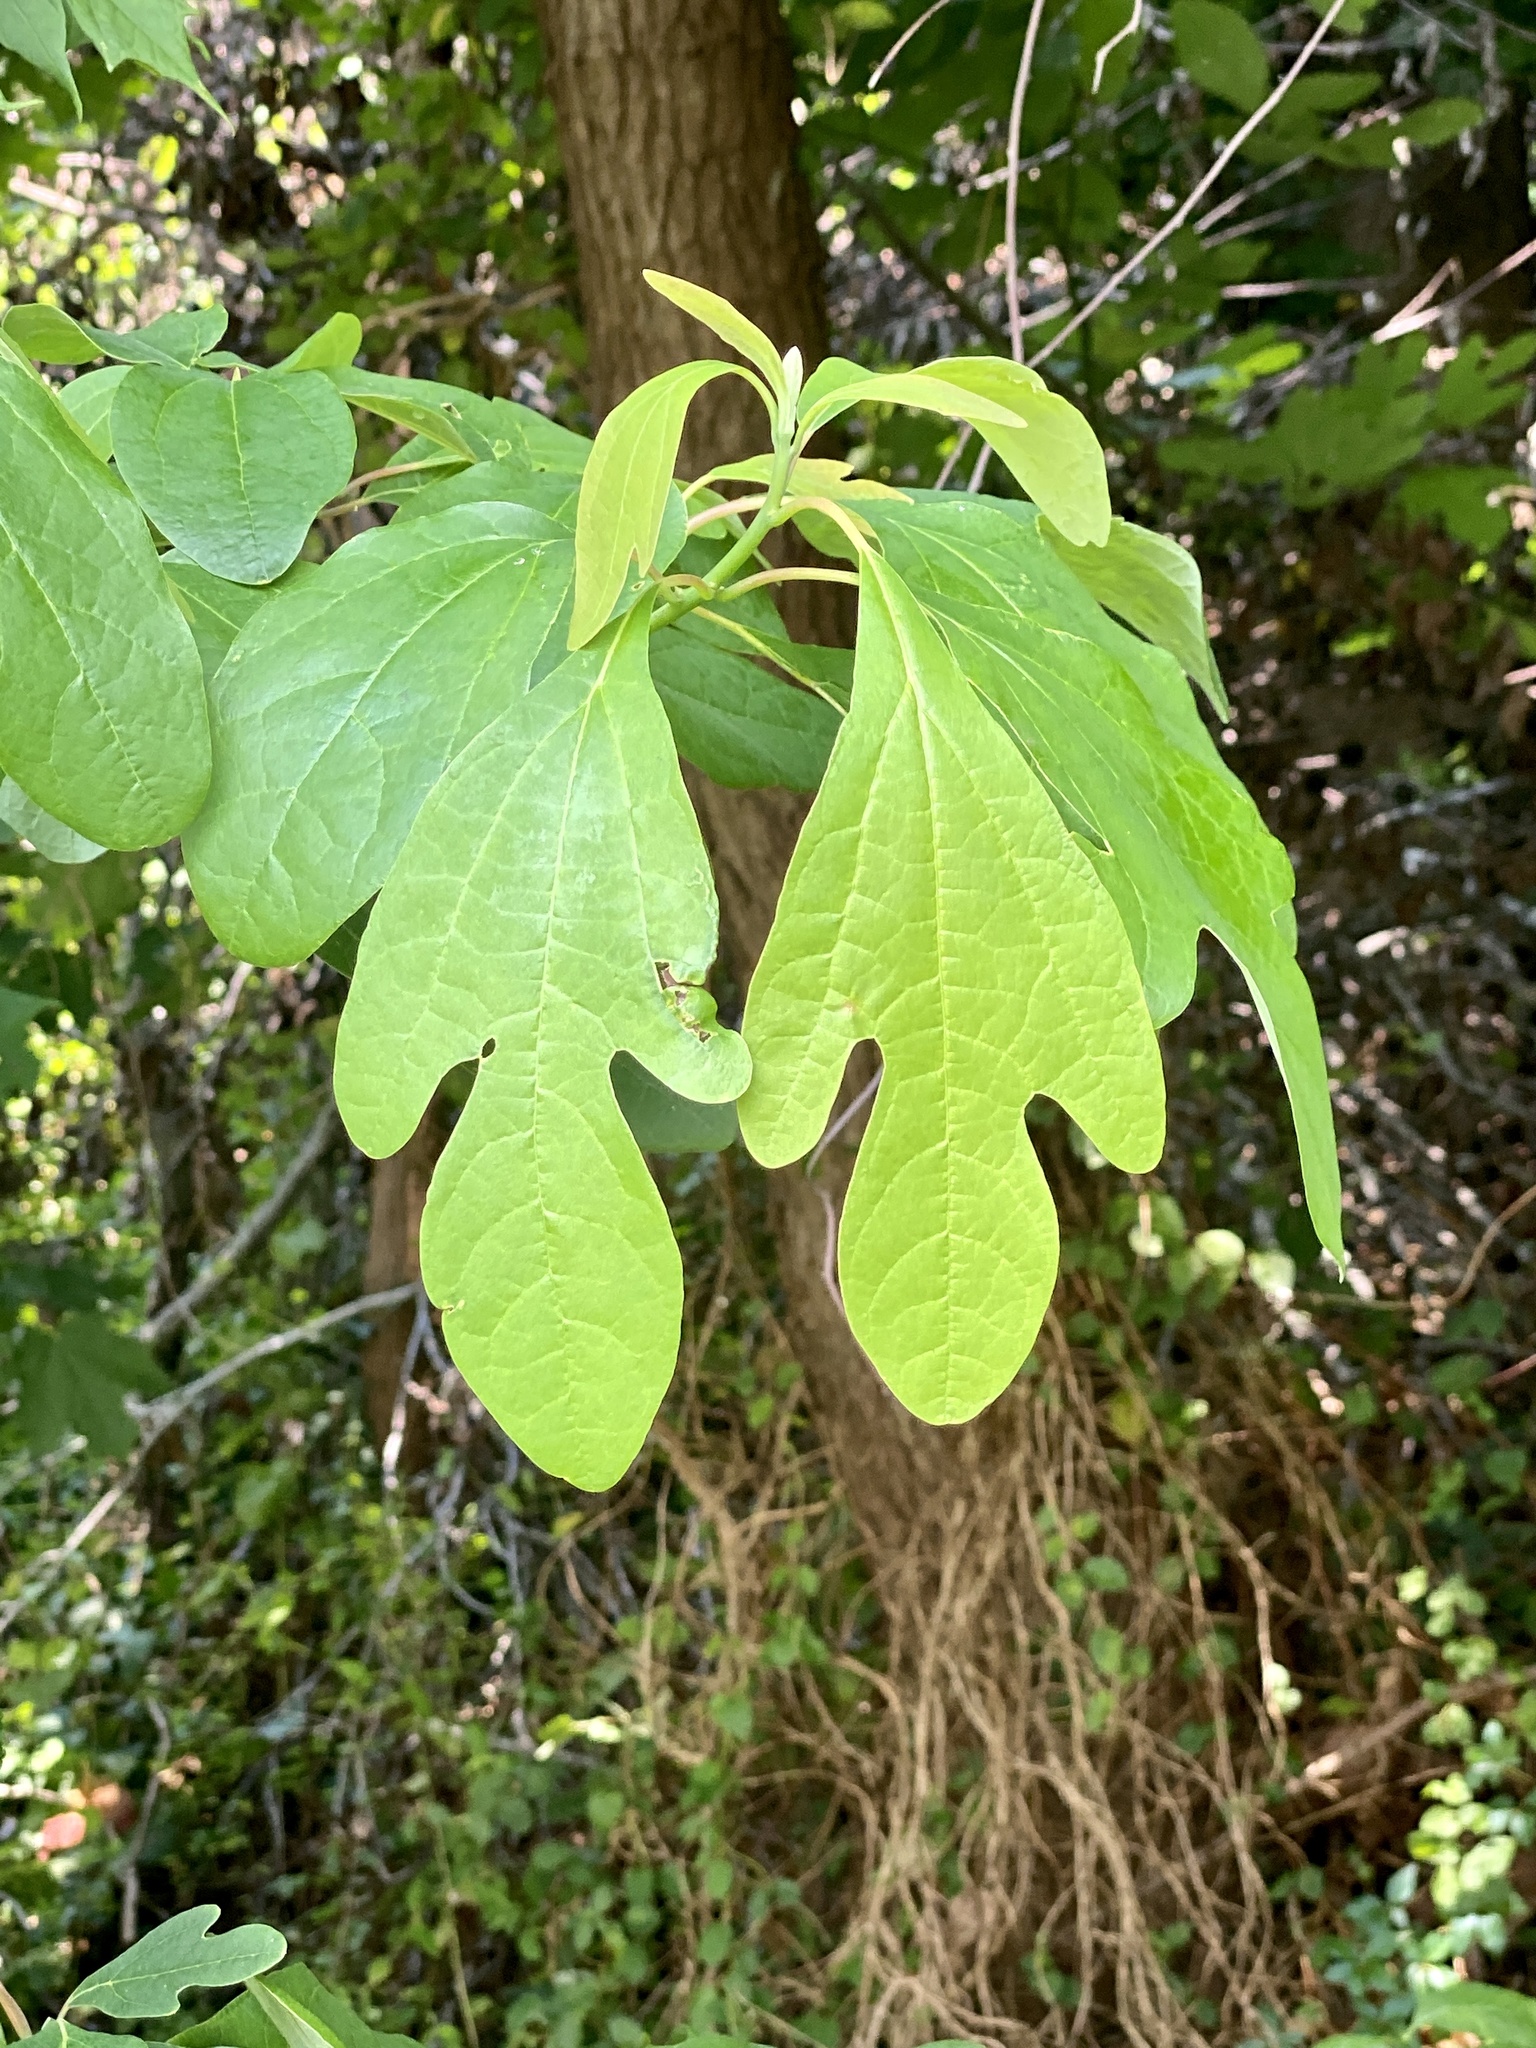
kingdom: Plantae
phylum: Tracheophyta
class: Magnoliopsida
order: Laurales
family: Lauraceae
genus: Sassafras
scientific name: Sassafras albidum
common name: Sassafras
